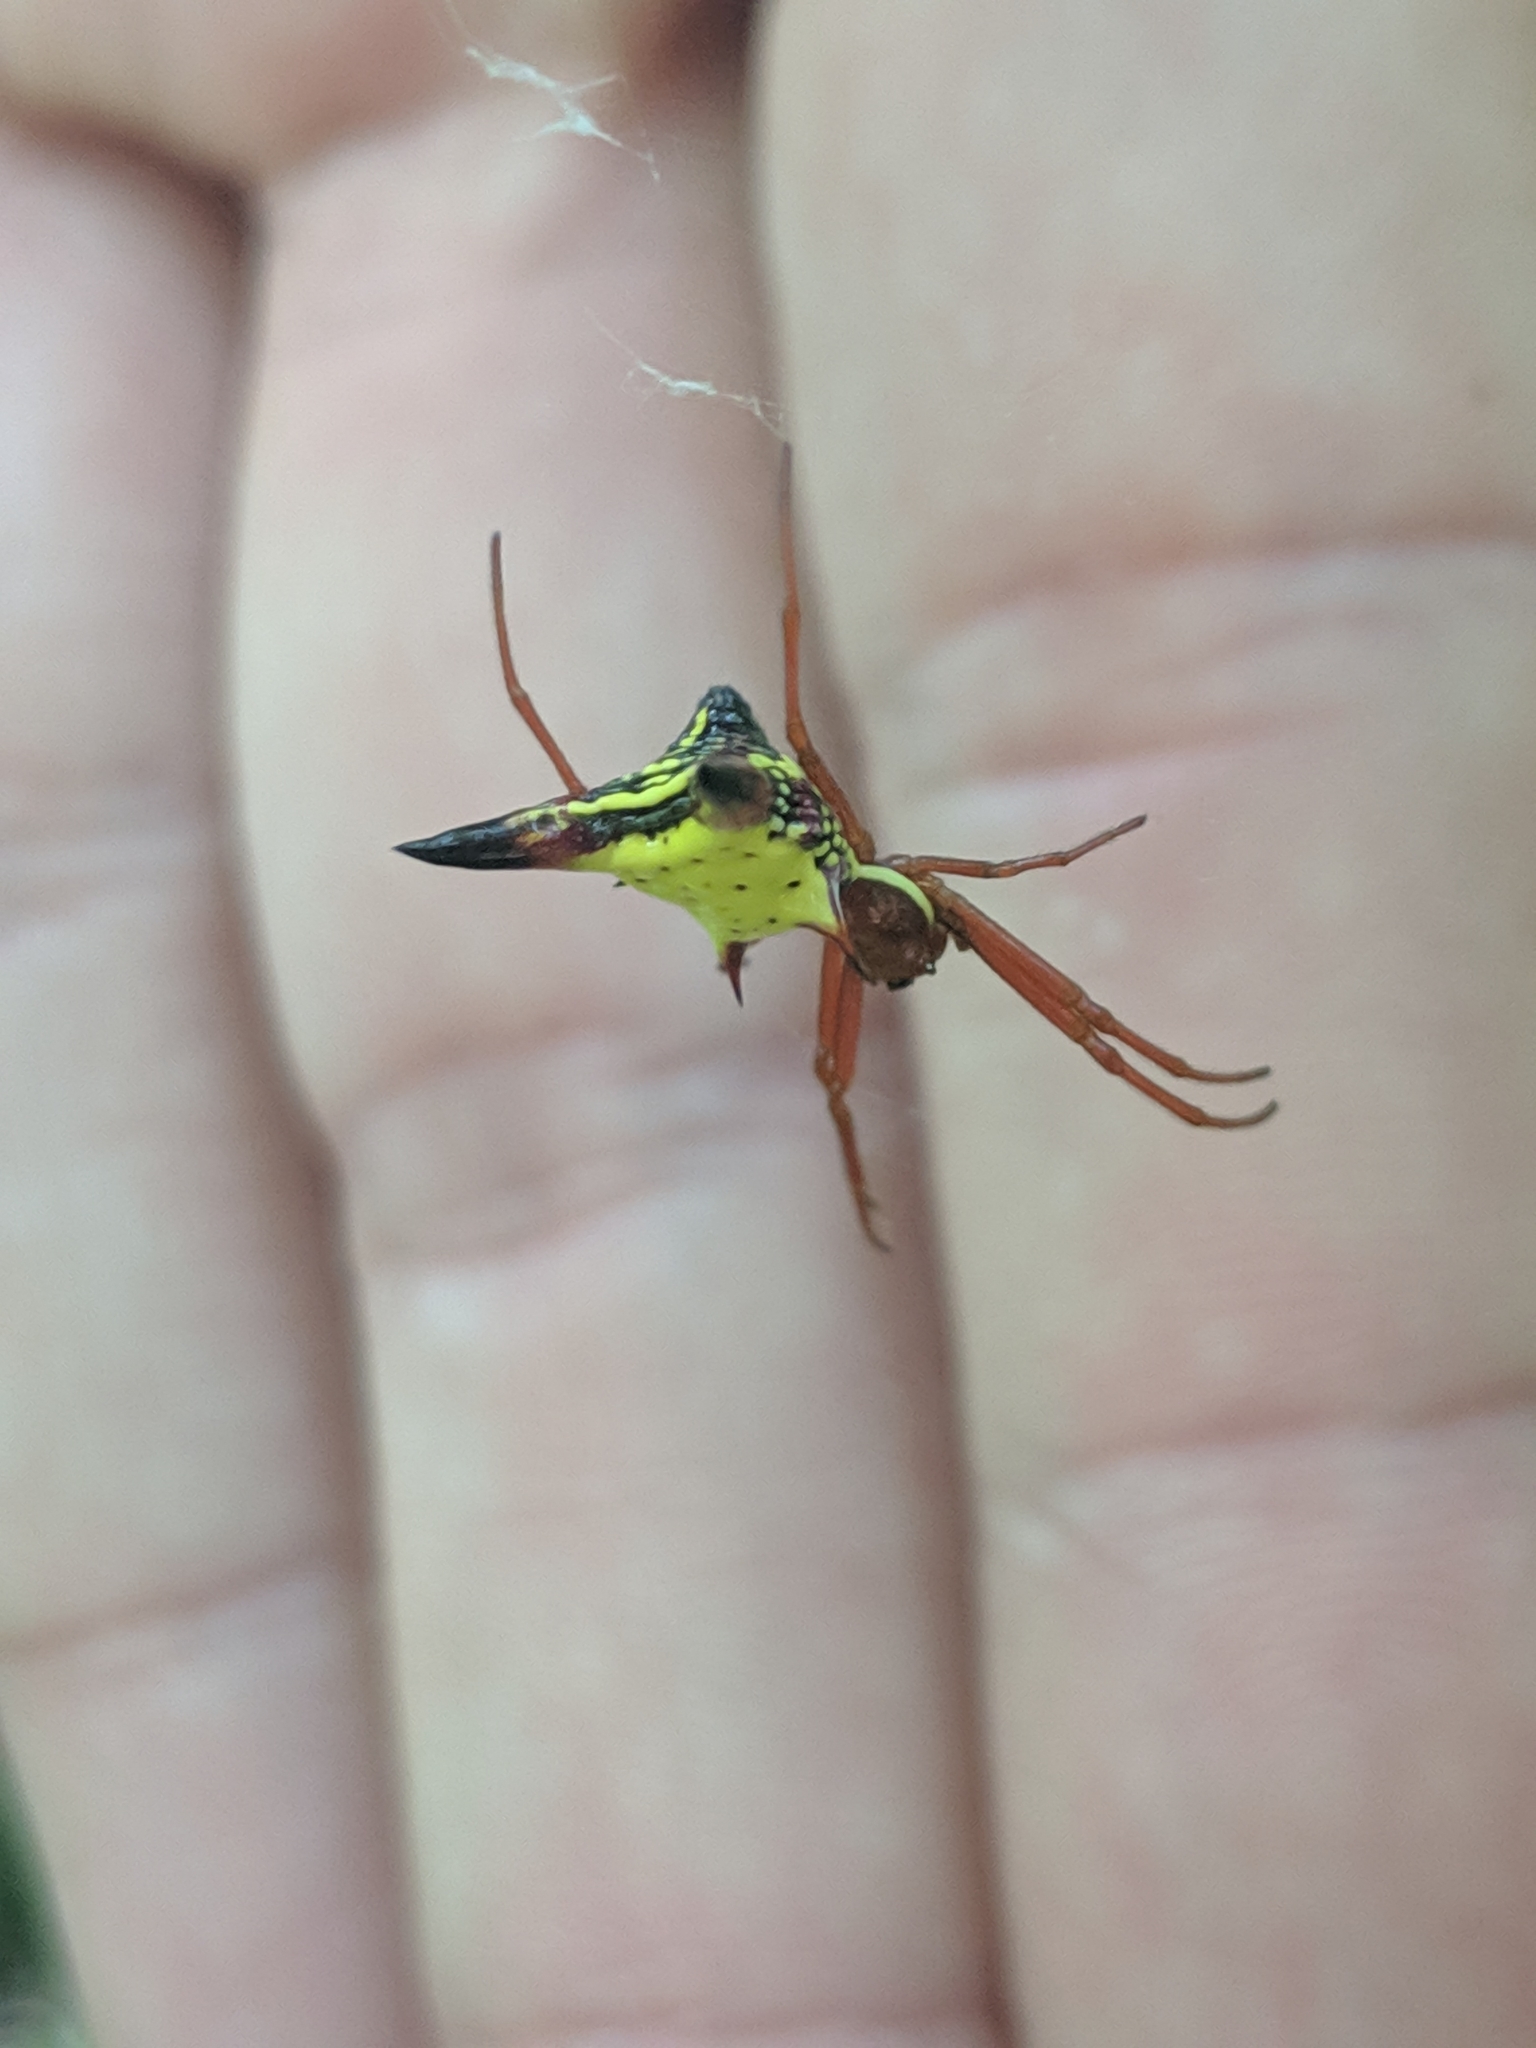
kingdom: Animalia
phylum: Arthropoda
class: Arachnida
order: Araneae
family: Araneidae
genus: Micrathena
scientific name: Micrathena sagittata
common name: Orb weavers
